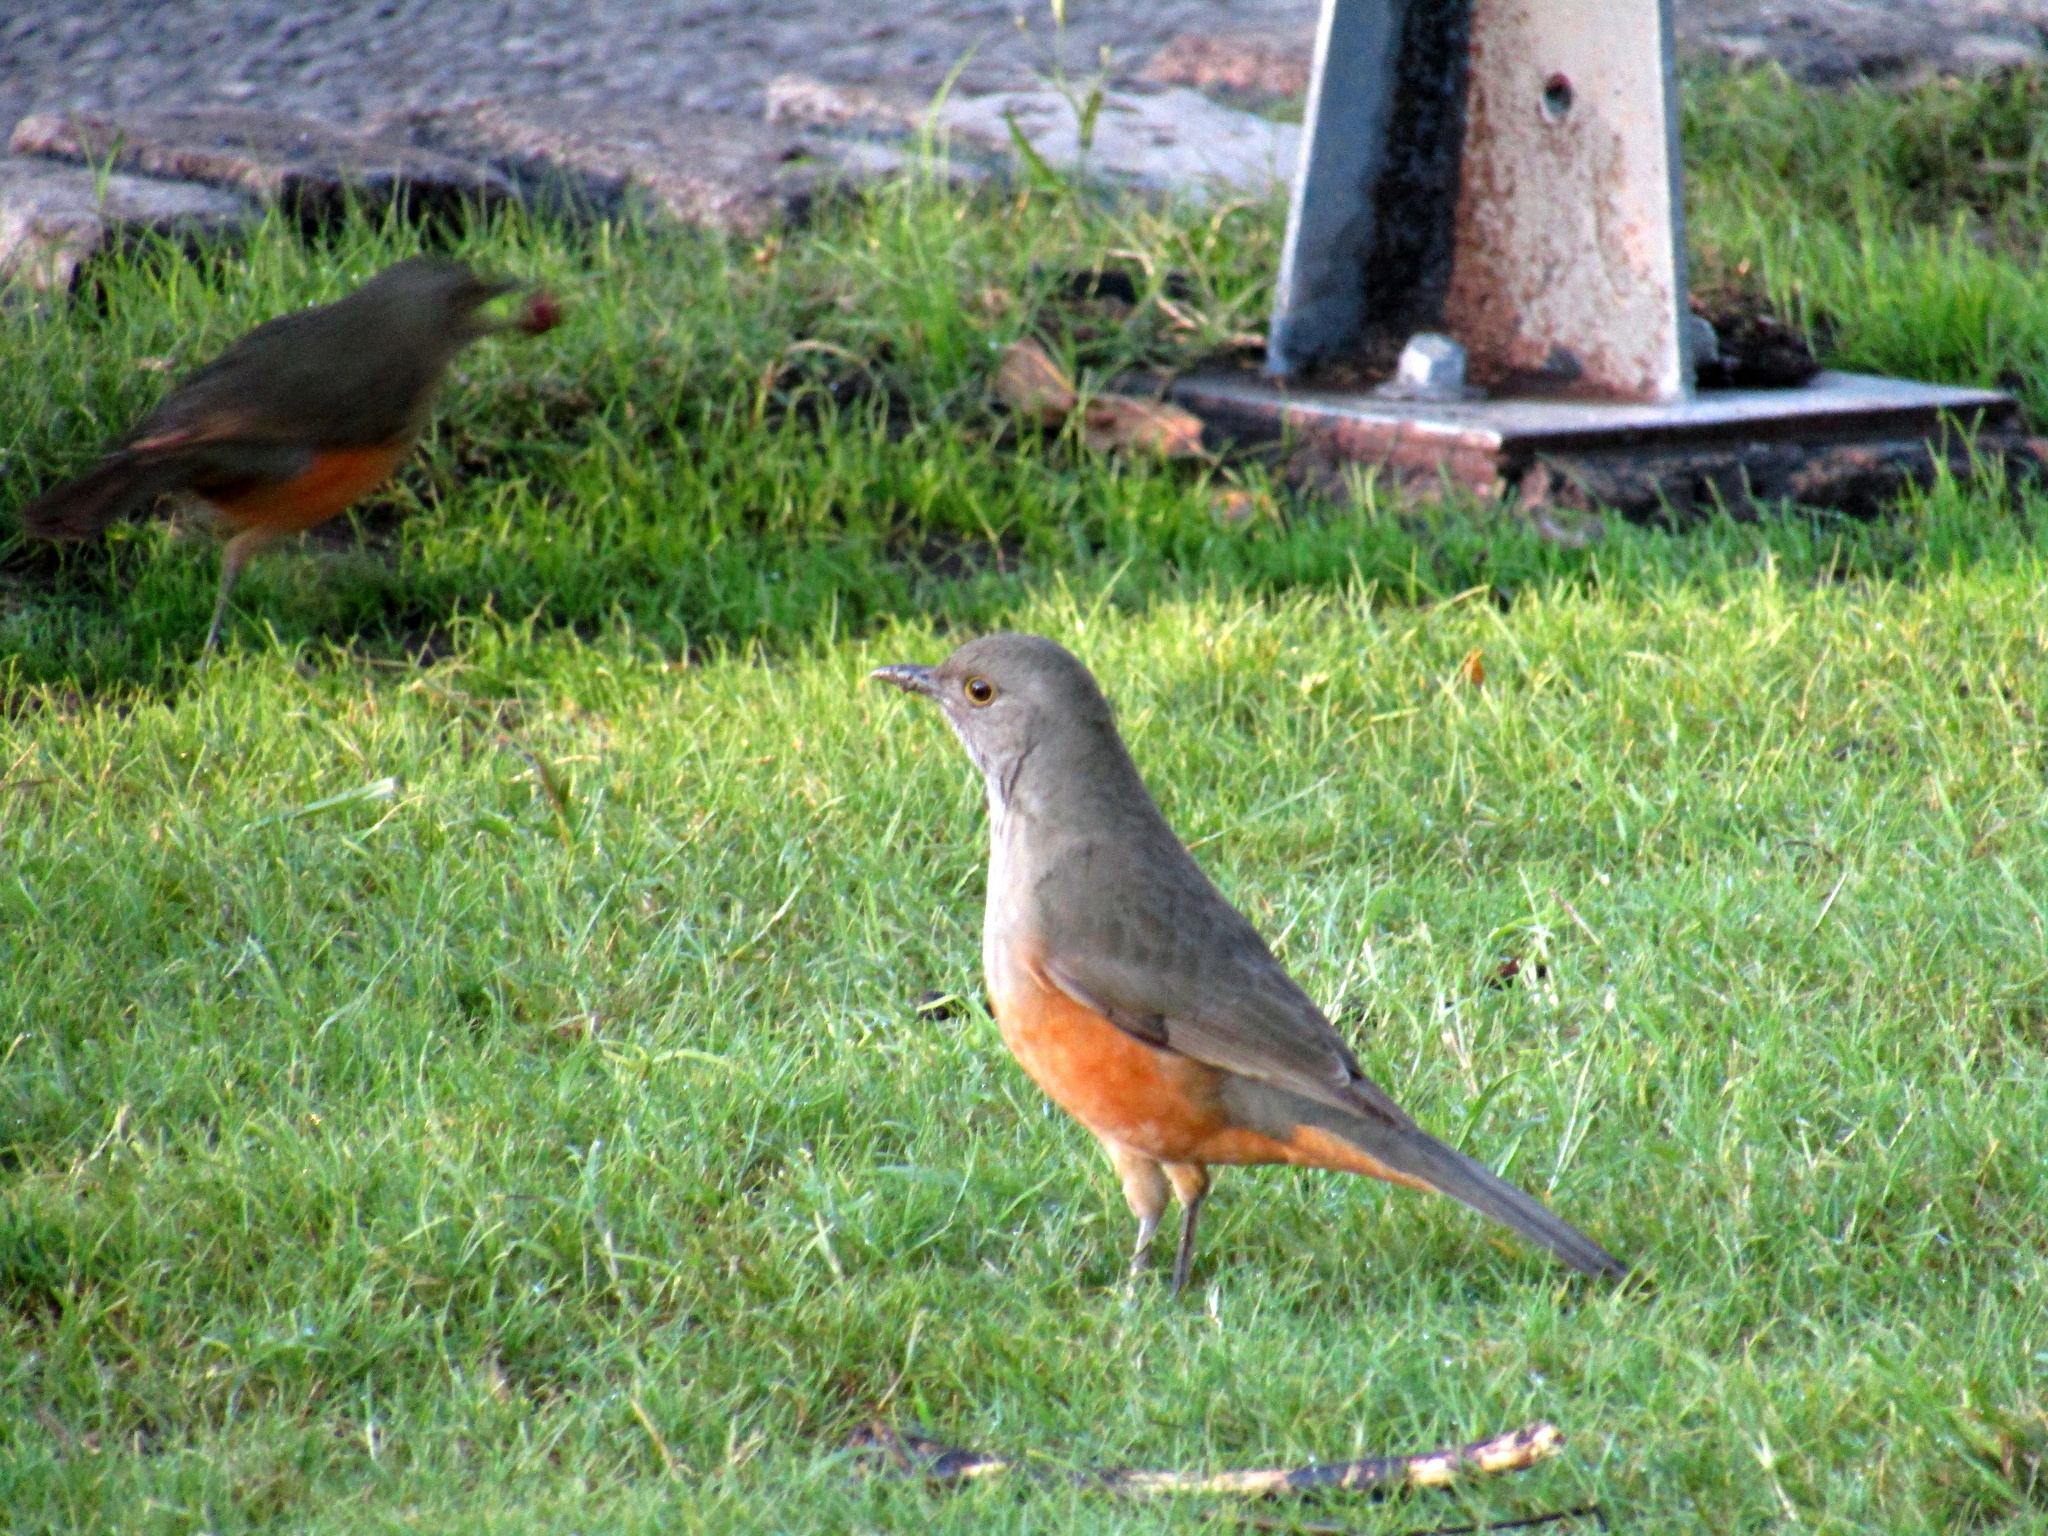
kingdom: Animalia
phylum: Chordata
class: Aves
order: Passeriformes
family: Turdidae
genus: Turdus
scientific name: Turdus rufiventris
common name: Rufous-bellied thrush
